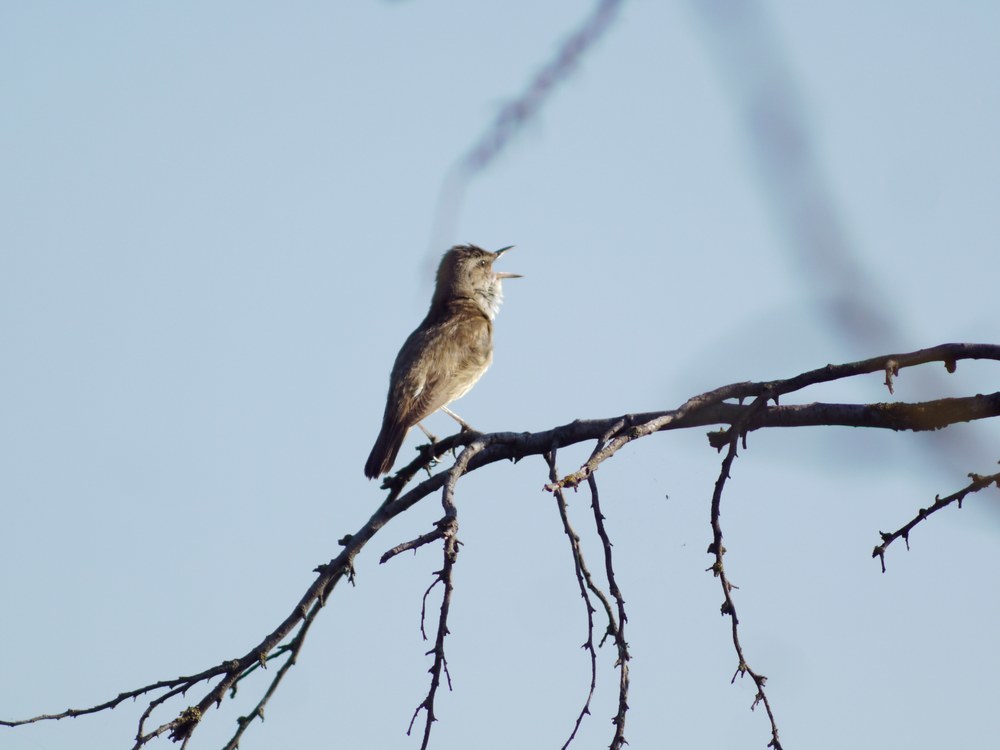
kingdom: Animalia
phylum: Chordata
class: Aves
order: Passeriformes
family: Acrocephalidae
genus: Acrocephalus
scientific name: Acrocephalus arundinaceus
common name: Great reed warbler
